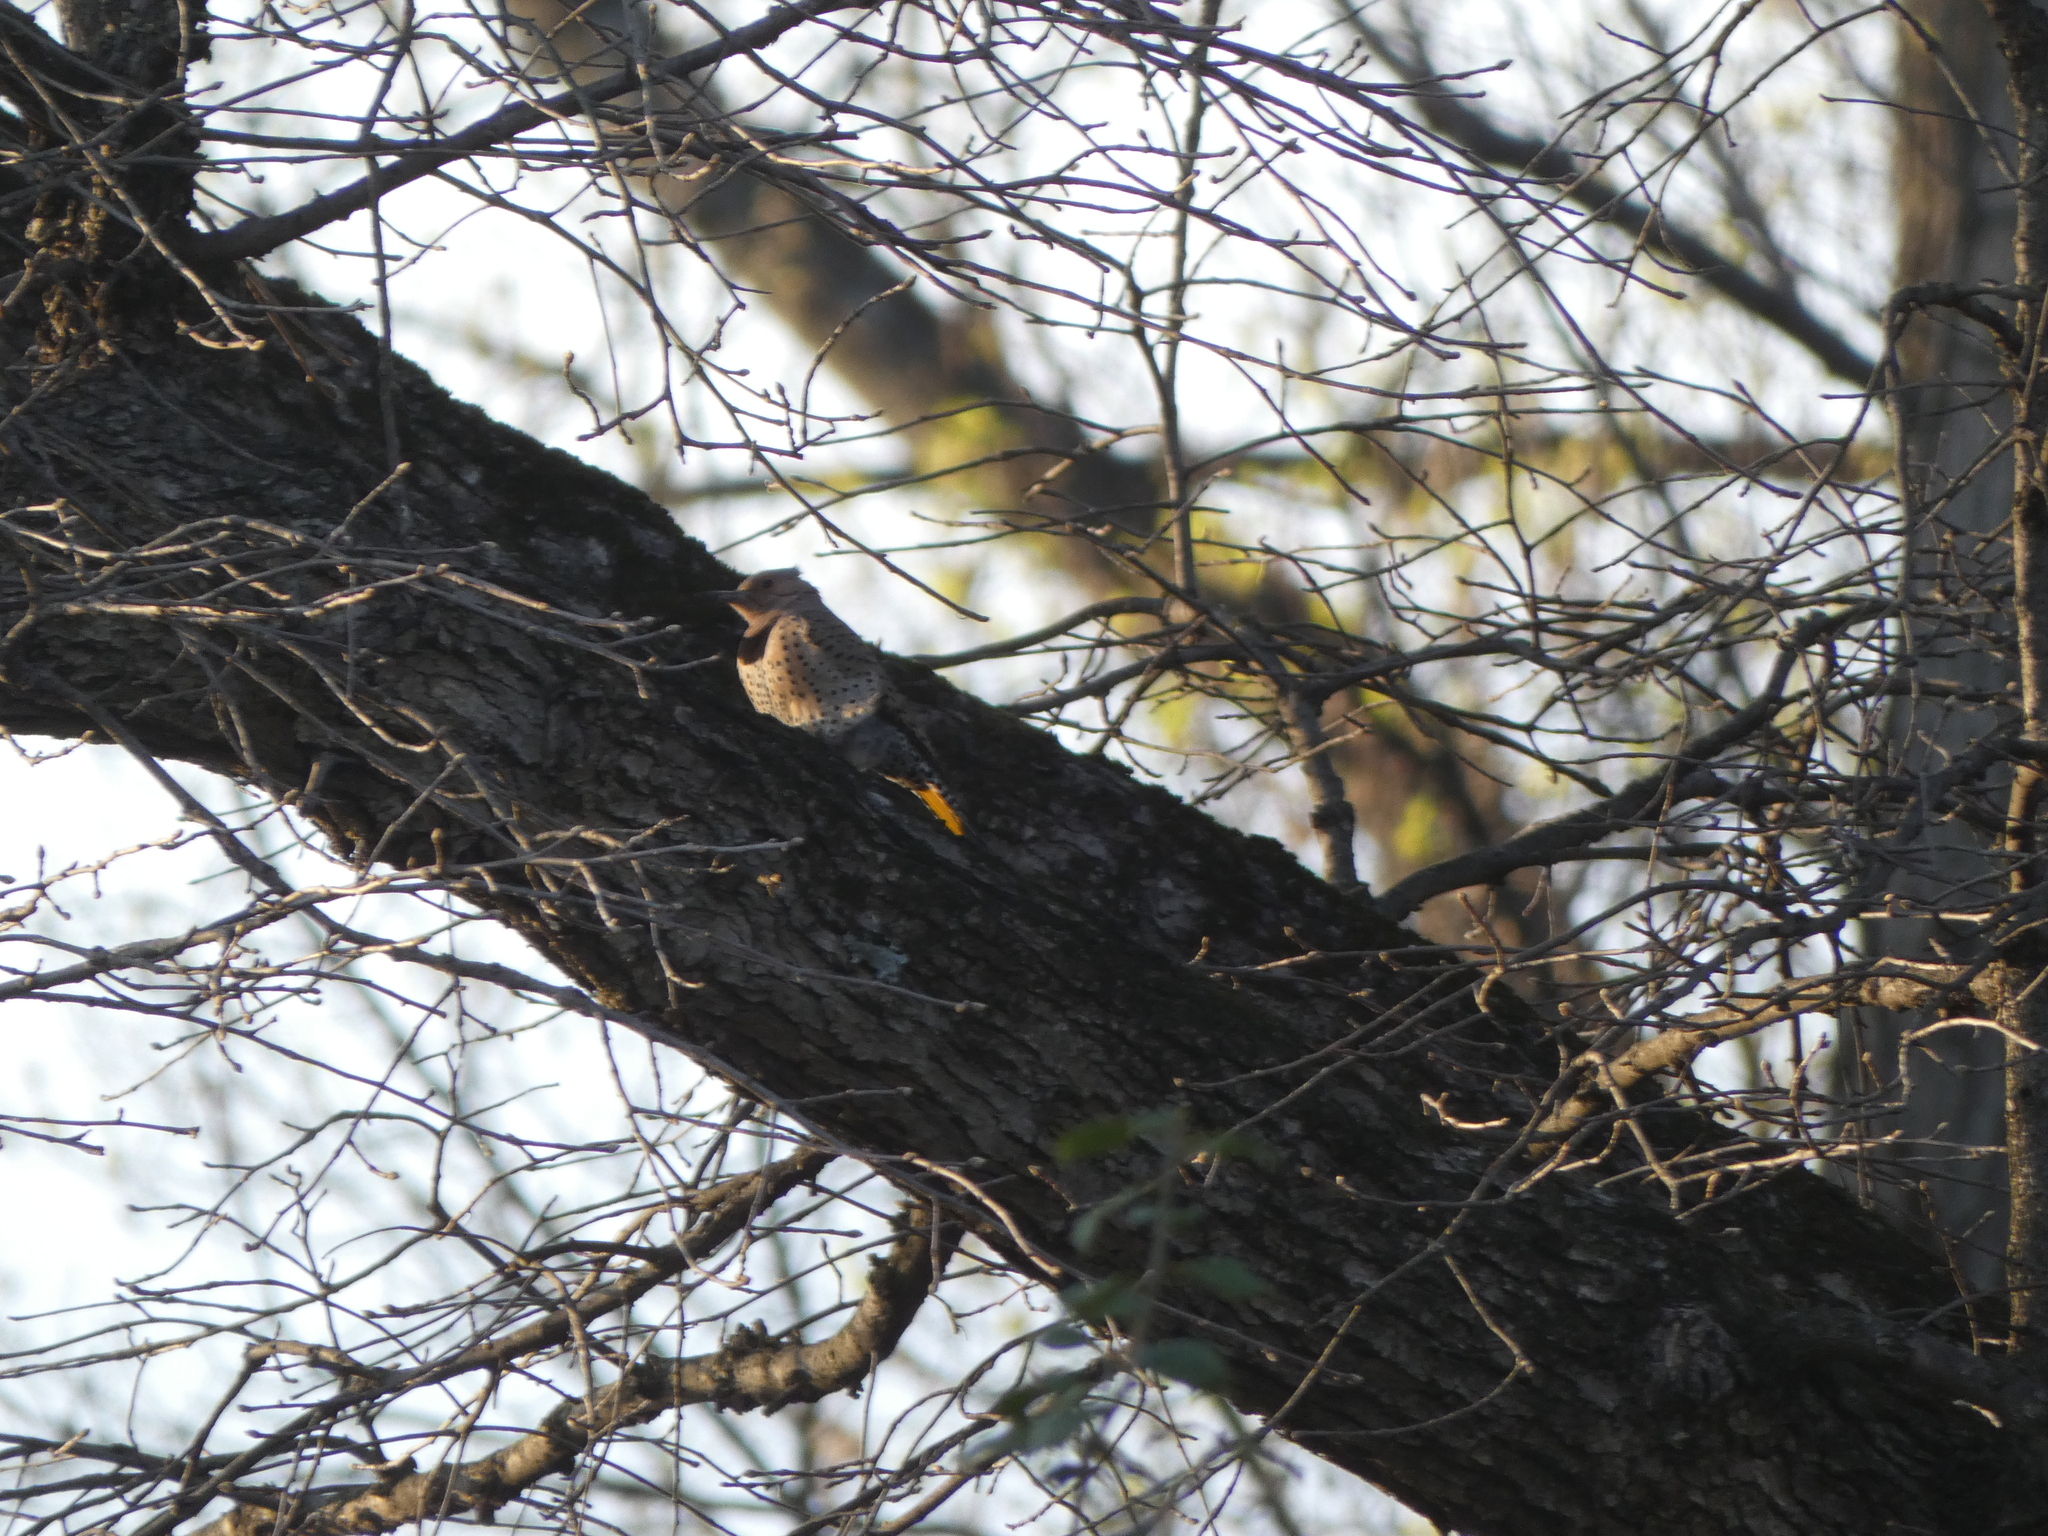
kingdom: Animalia
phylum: Chordata
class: Aves
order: Piciformes
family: Picidae
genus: Colaptes
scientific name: Colaptes auratus
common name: Northern flicker
